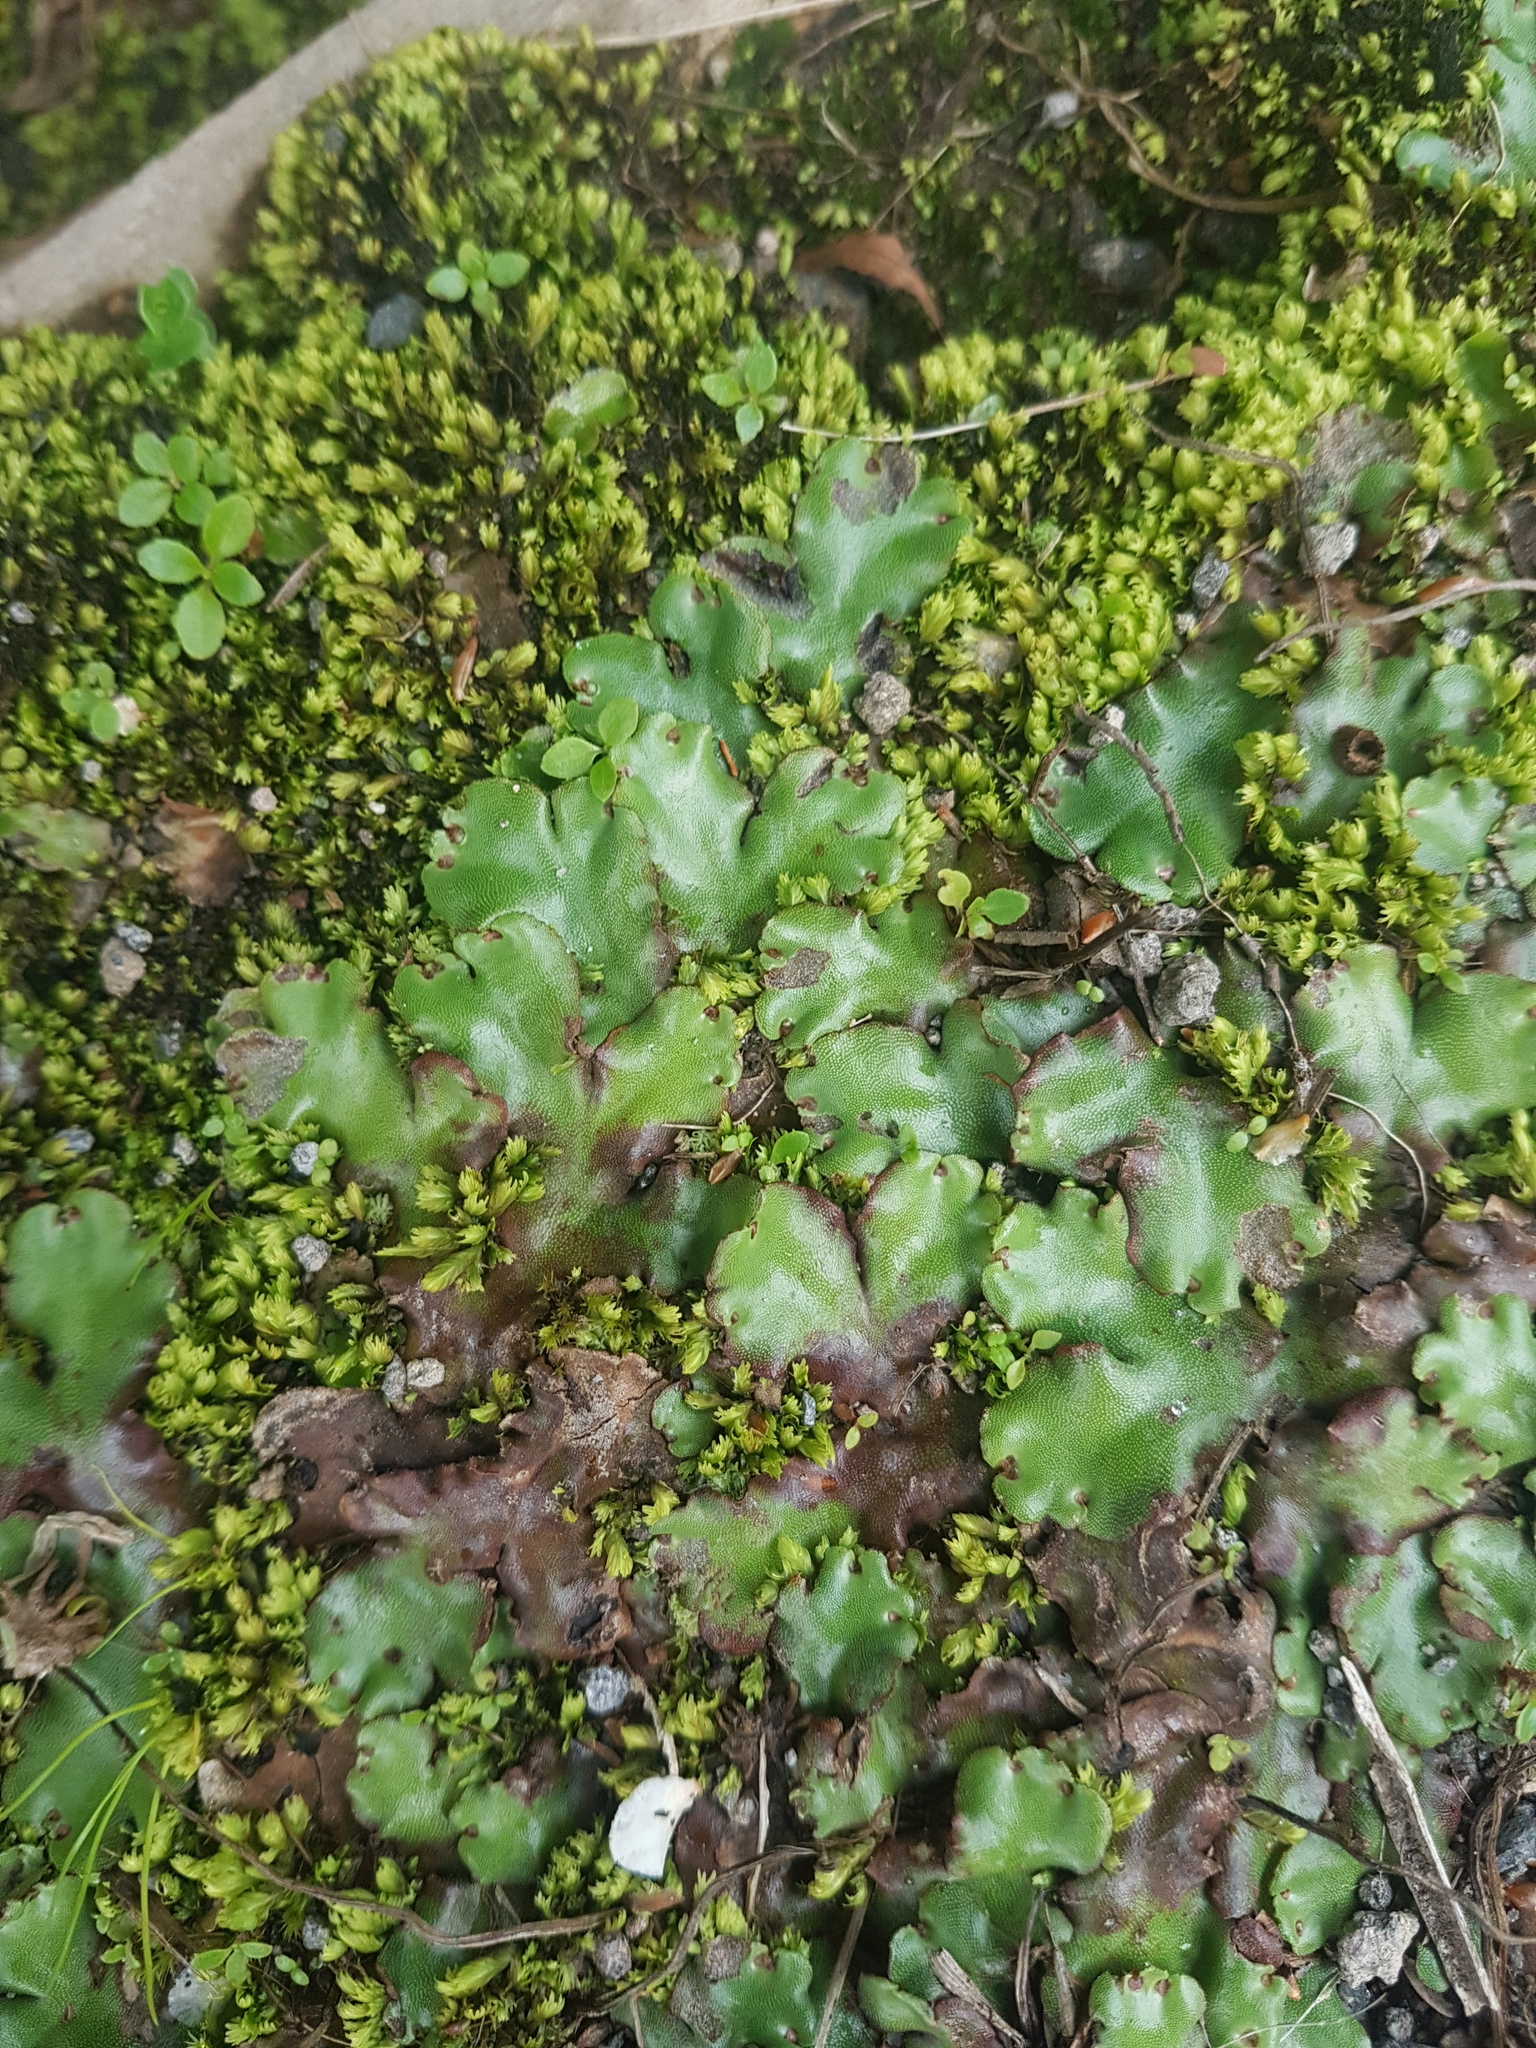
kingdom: Plantae
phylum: Marchantiophyta
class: Marchantiopsida
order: Marchantiales
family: Marchantiaceae
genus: Marchantia
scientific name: Marchantia berteroana
